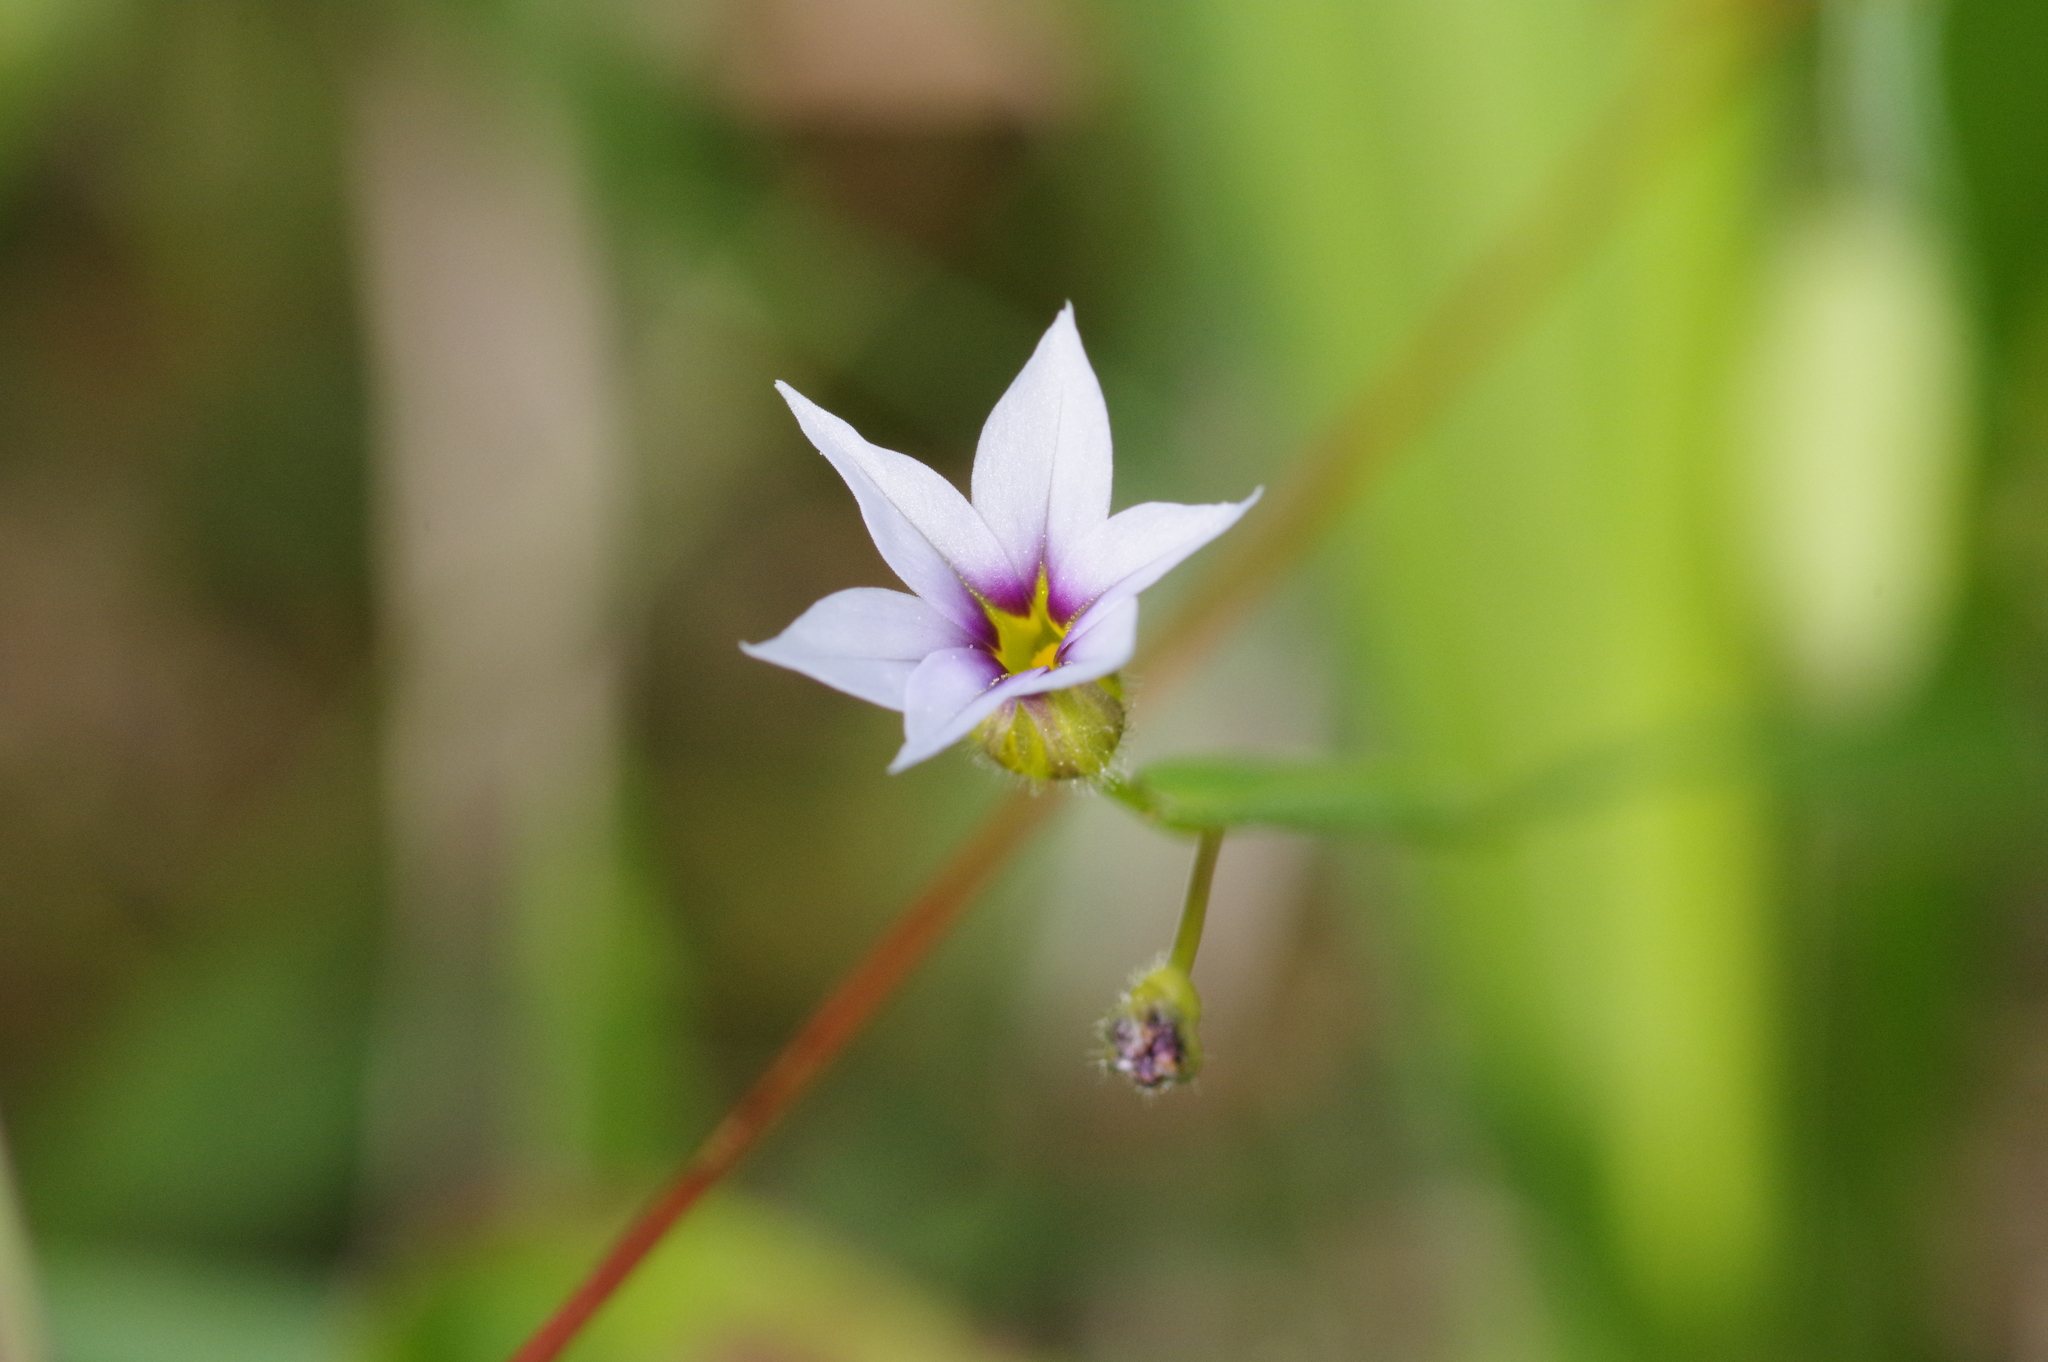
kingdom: Plantae
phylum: Tracheophyta
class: Liliopsida
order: Asparagales
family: Iridaceae
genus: Sisyrinchium
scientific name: Sisyrinchium micranthum
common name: Bermuda pigroot
